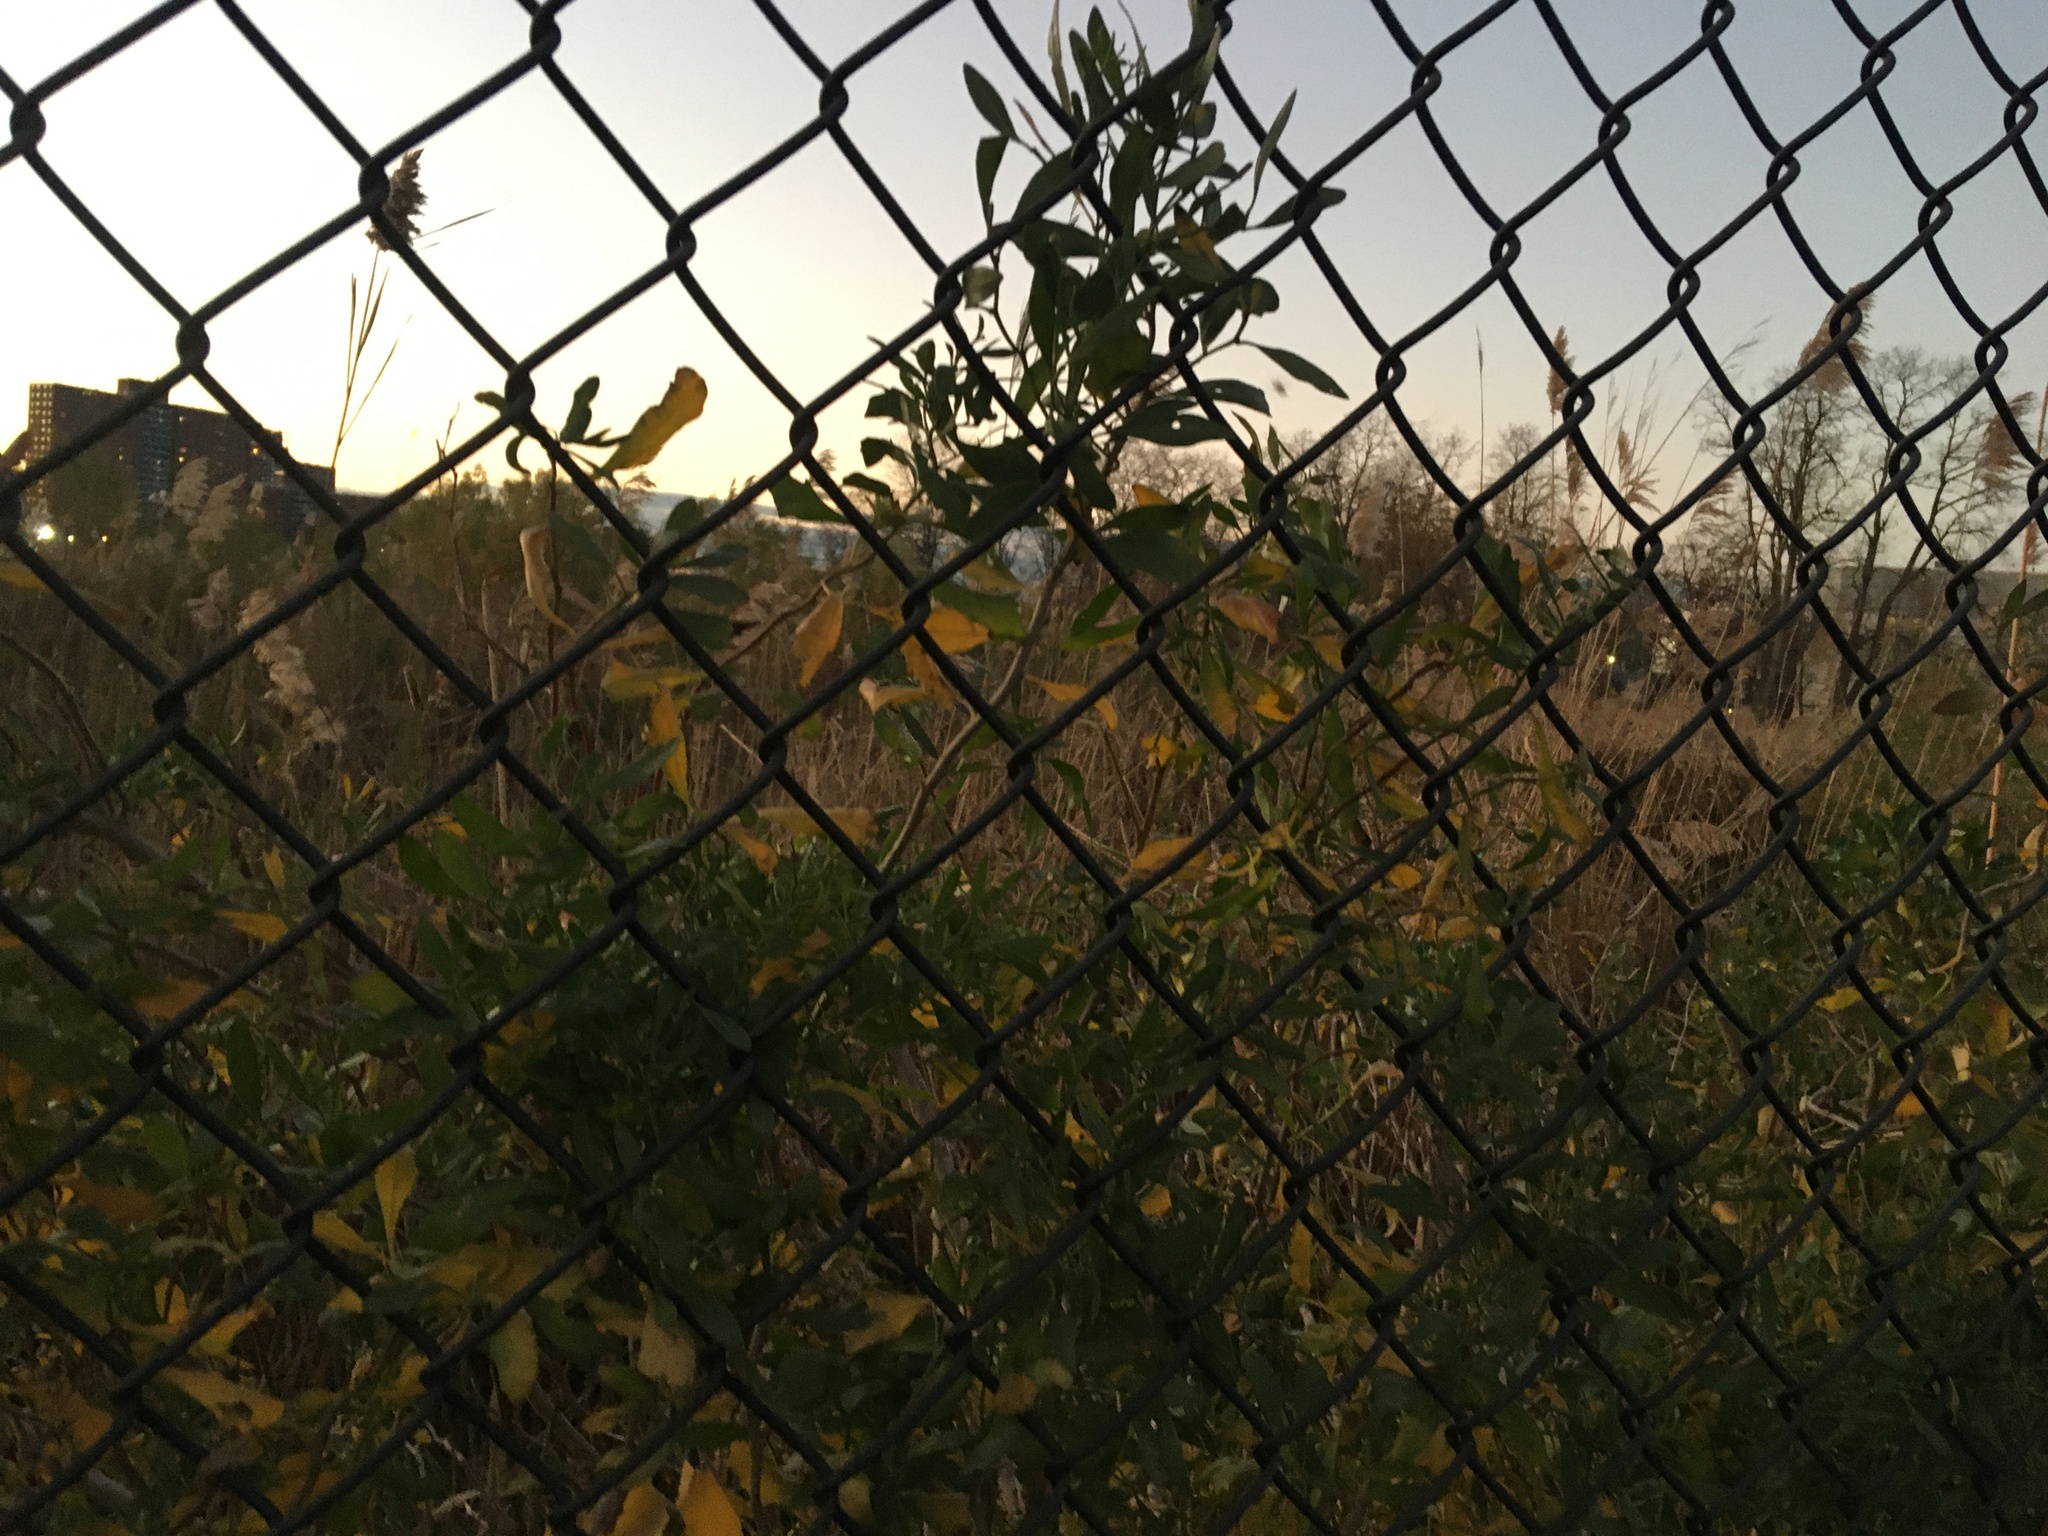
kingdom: Plantae
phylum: Tracheophyta
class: Magnoliopsida
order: Asterales
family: Asteraceae
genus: Baccharis
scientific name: Baccharis halimifolia
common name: Eastern baccharis
